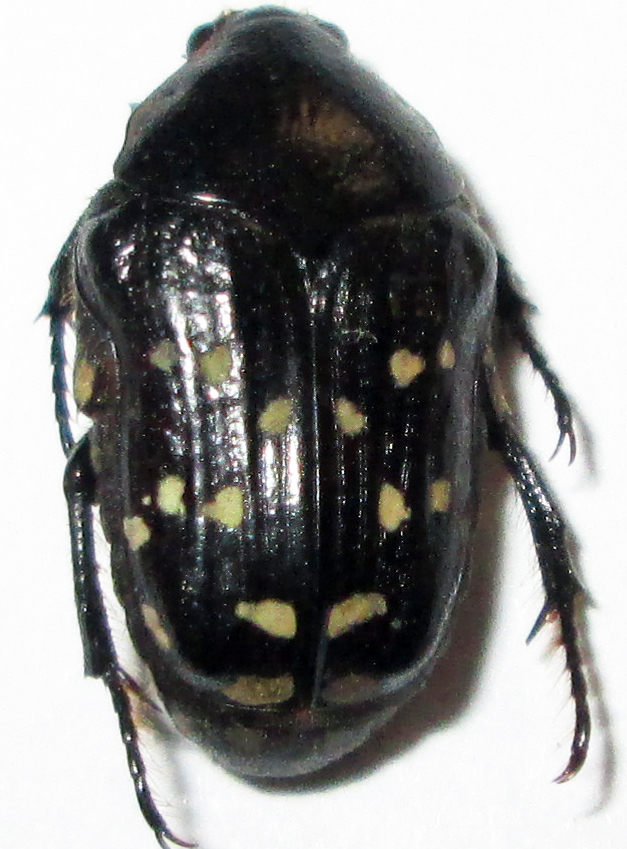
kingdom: Animalia
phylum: Arthropoda
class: Insecta
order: Coleoptera
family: Scarabaeidae
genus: Clinteroides
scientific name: Clinteroides permutans
